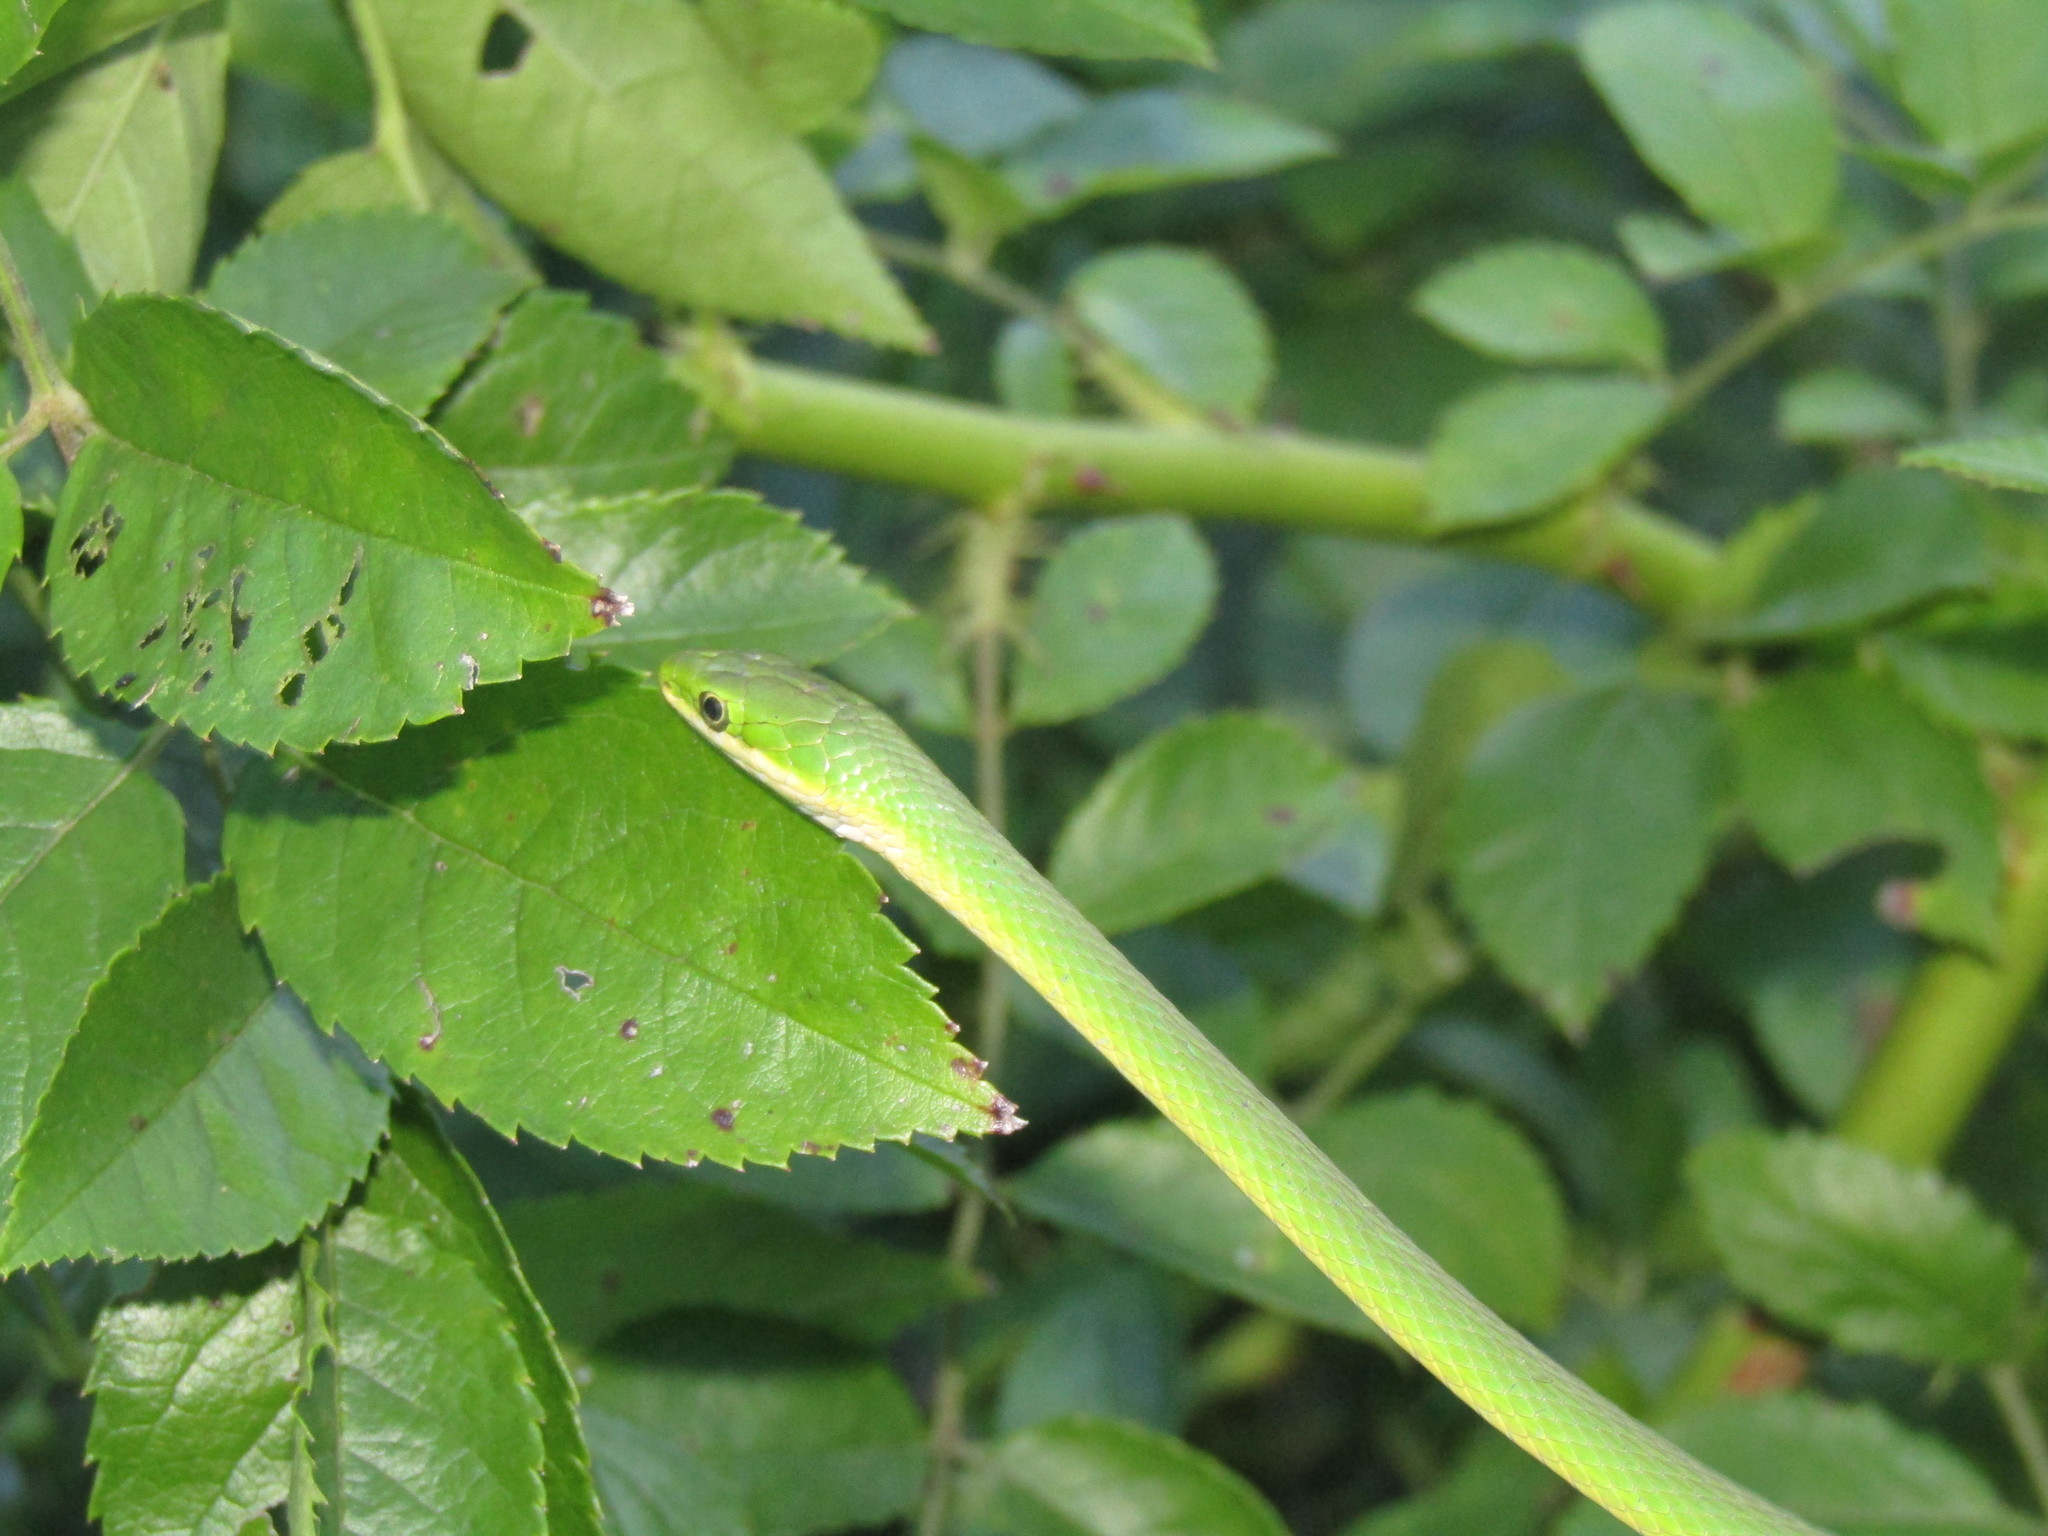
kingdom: Animalia
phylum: Chordata
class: Squamata
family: Colubridae
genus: Opheodrys
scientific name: Opheodrys aestivus
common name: Rough greensnake
